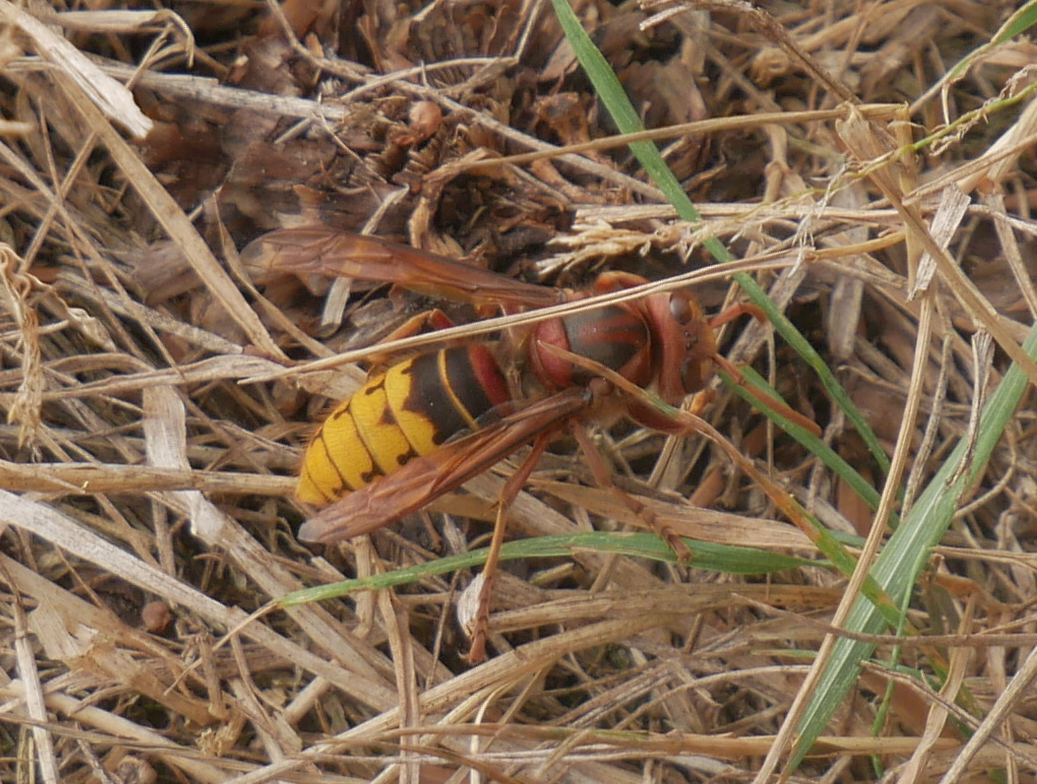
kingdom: Animalia
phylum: Arthropoda
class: Insecta
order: Hymenoptera
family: Vespidae
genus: Vespa
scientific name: Vespa crabro
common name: Hornet
